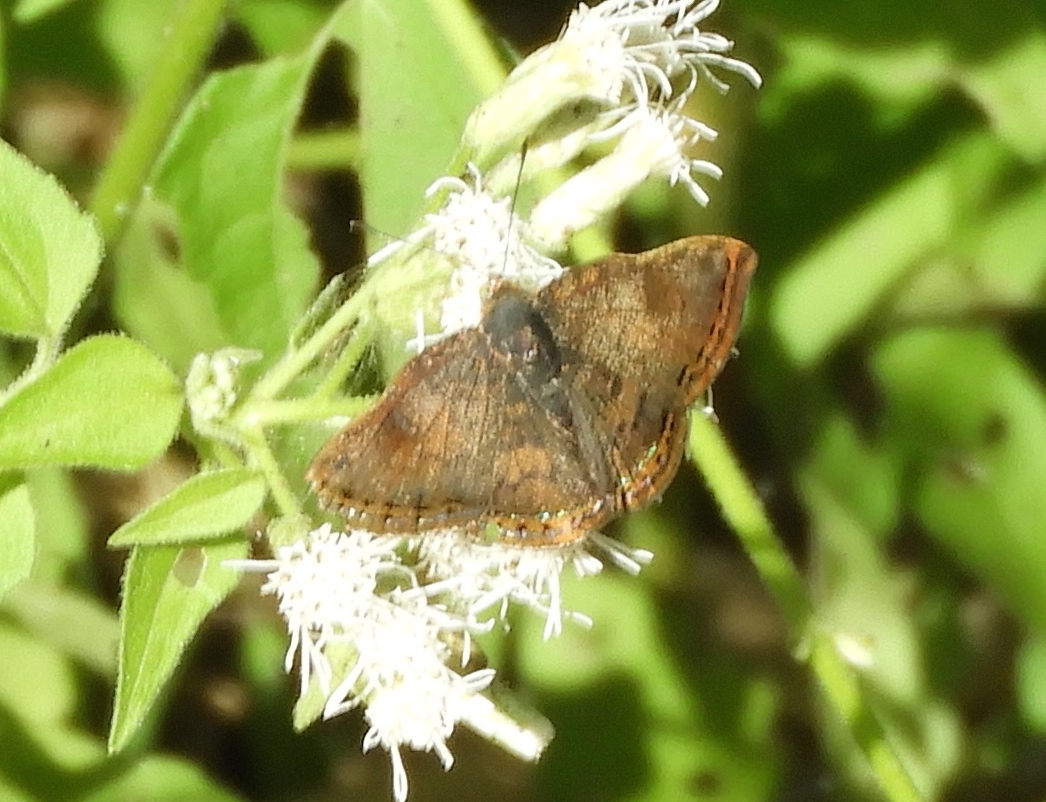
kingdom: Animalia
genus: Caria
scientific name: Caria ino
